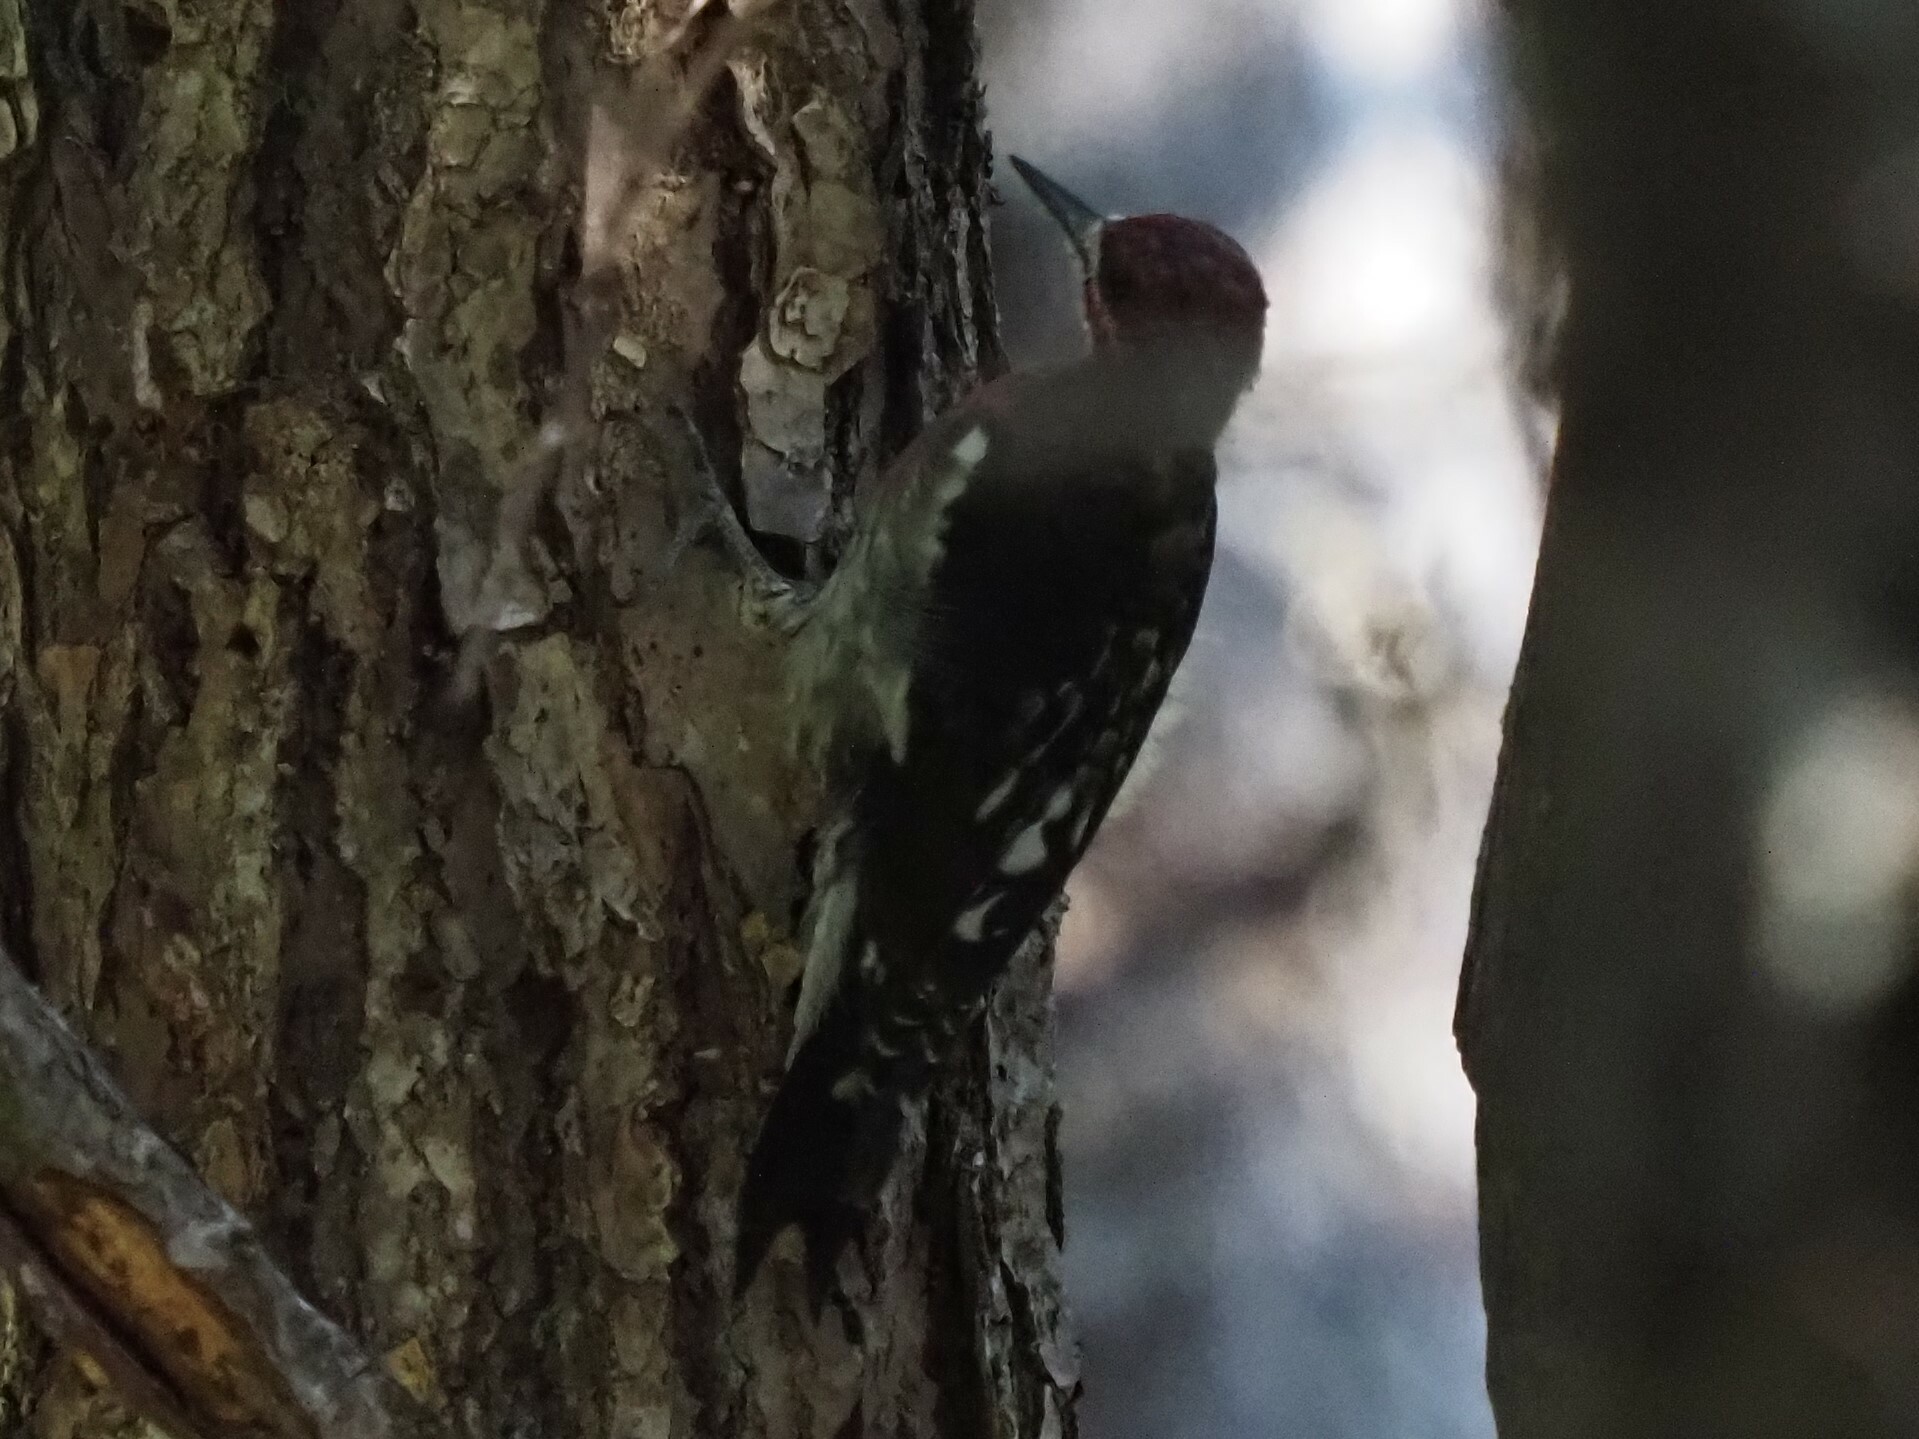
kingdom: Animalia
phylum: Chordata
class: Aves
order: Piciformes
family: Picidae
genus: Sphyrapicus
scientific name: Sphyrapicus ruber
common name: Red-breasted sapsucker
